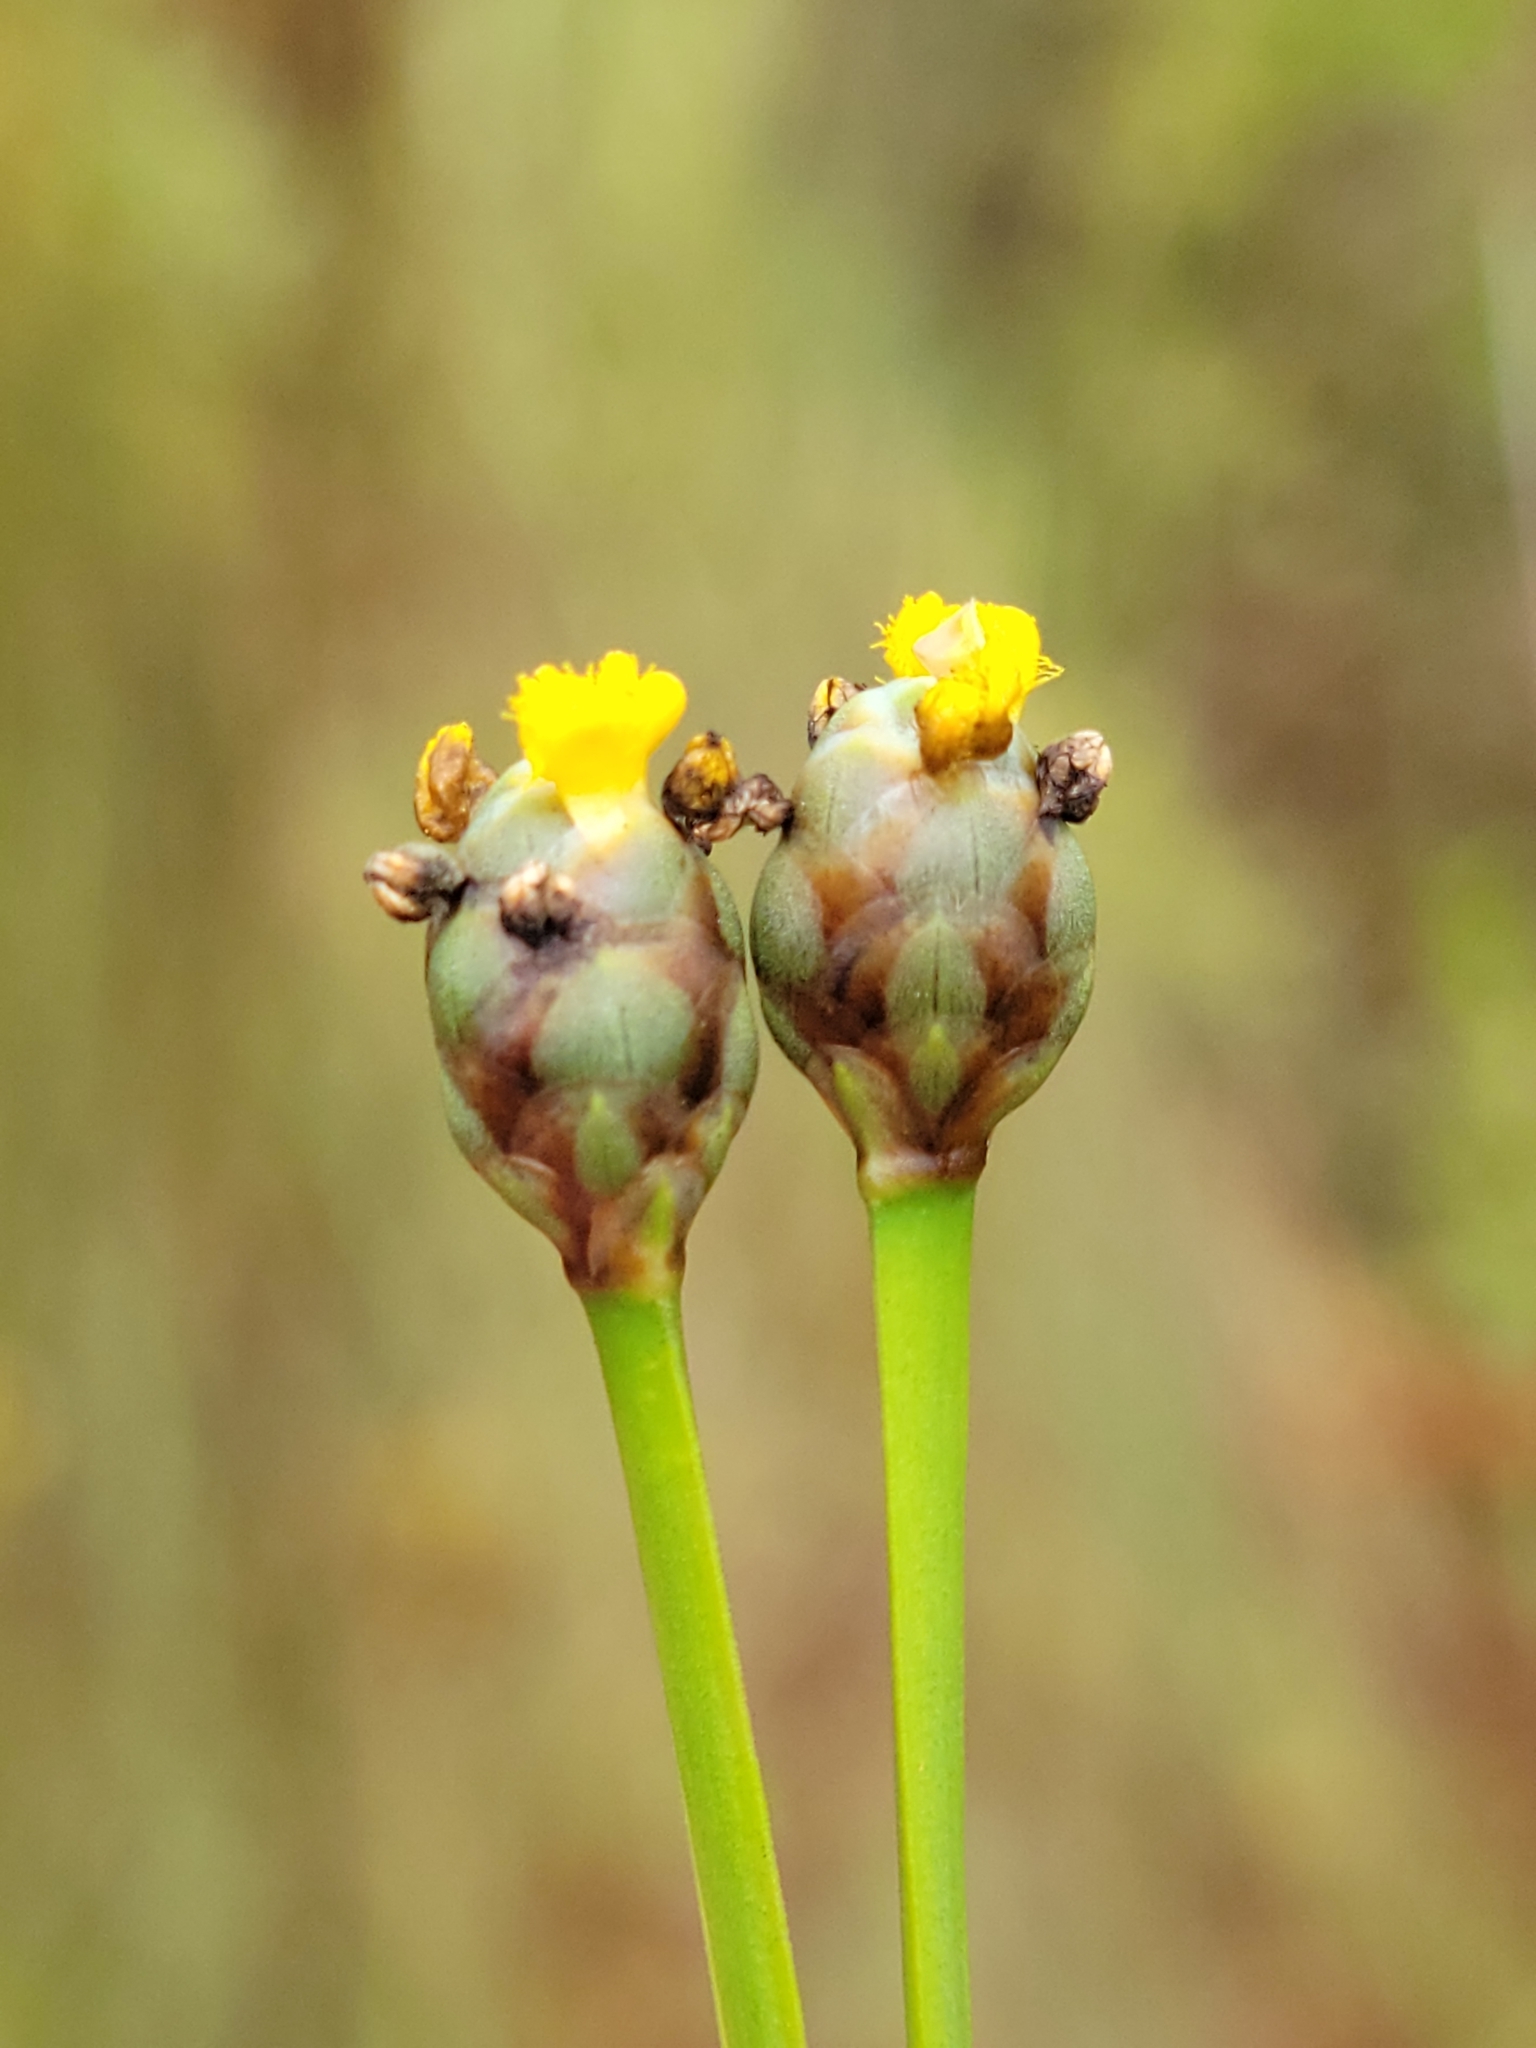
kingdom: Plantae
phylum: Tracheophyta
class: Liliopsida
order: Poales
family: Xyridaceae
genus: Xyris
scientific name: Xyris jupicai
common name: Richard's yelloweyed grass
